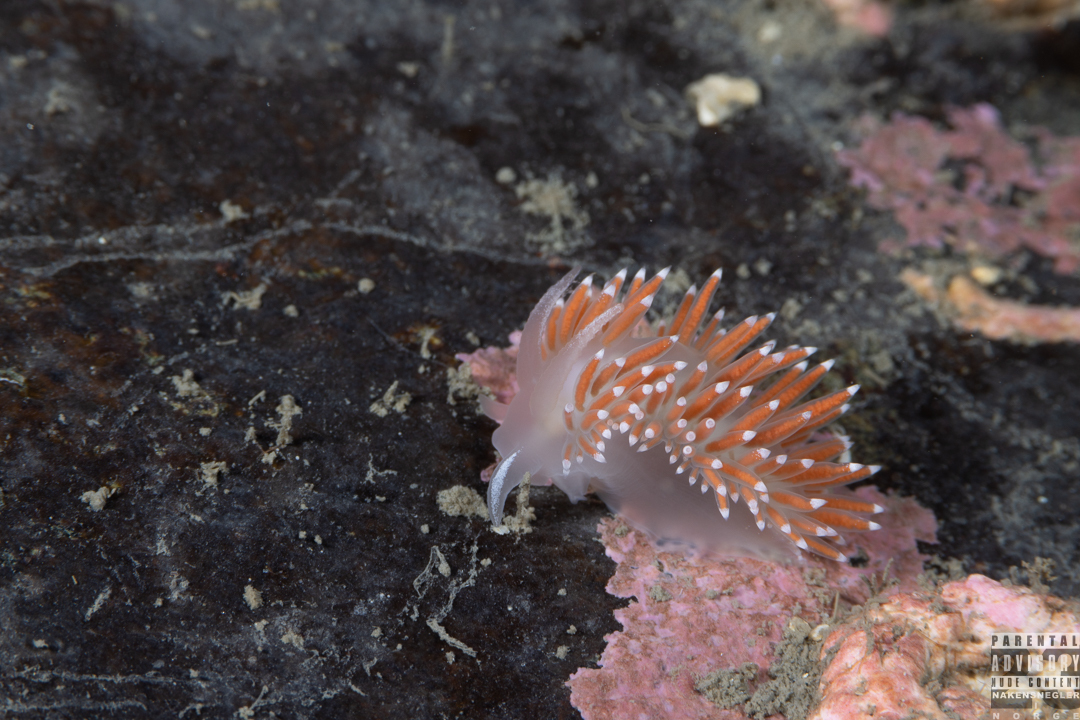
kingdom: Animalia
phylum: Mollusca
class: Gastropoda
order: Nudibranchia
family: Coryphellidae
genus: Coryphella
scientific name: Coryphella verrucosa
